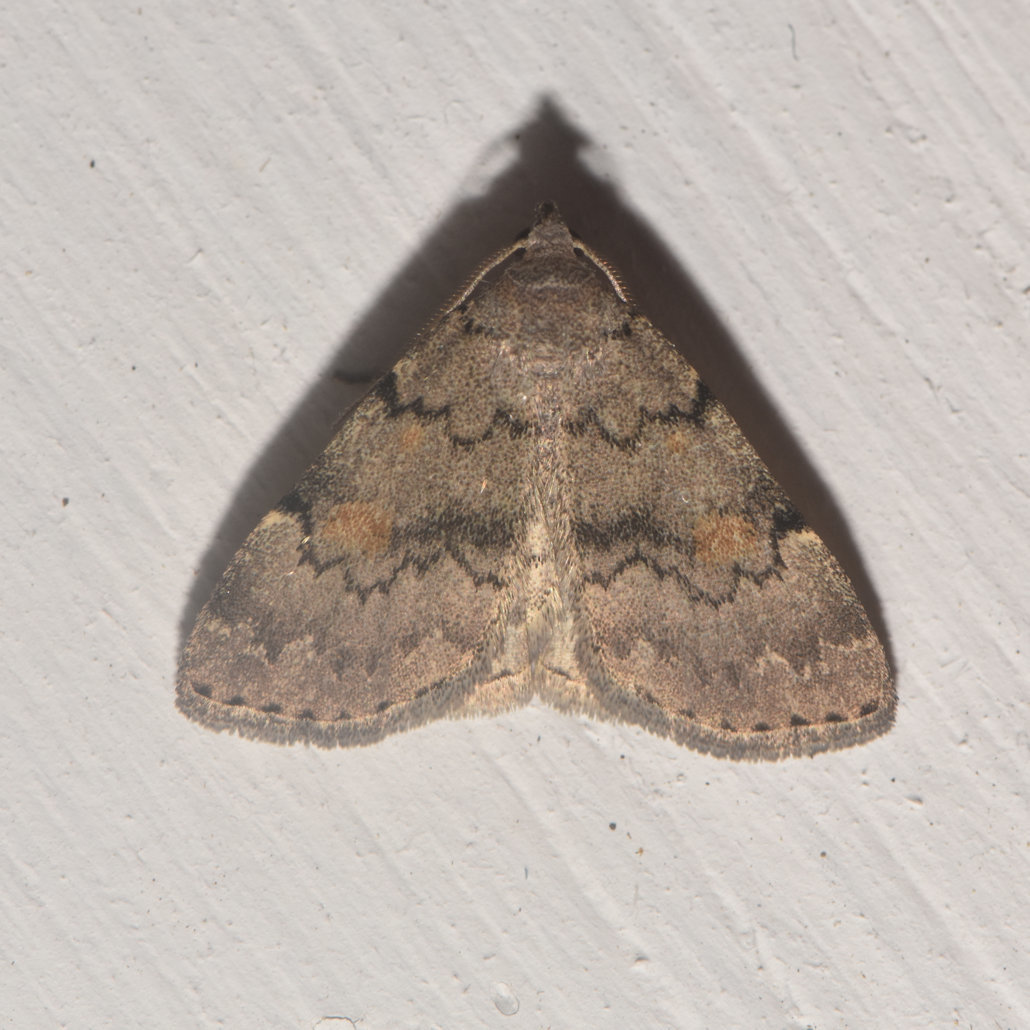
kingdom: Animalia
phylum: Arthropoda
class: Insecta
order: Lepidoptera
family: Erebidae
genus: Idia
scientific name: Idia aemula
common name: Common idia moth
